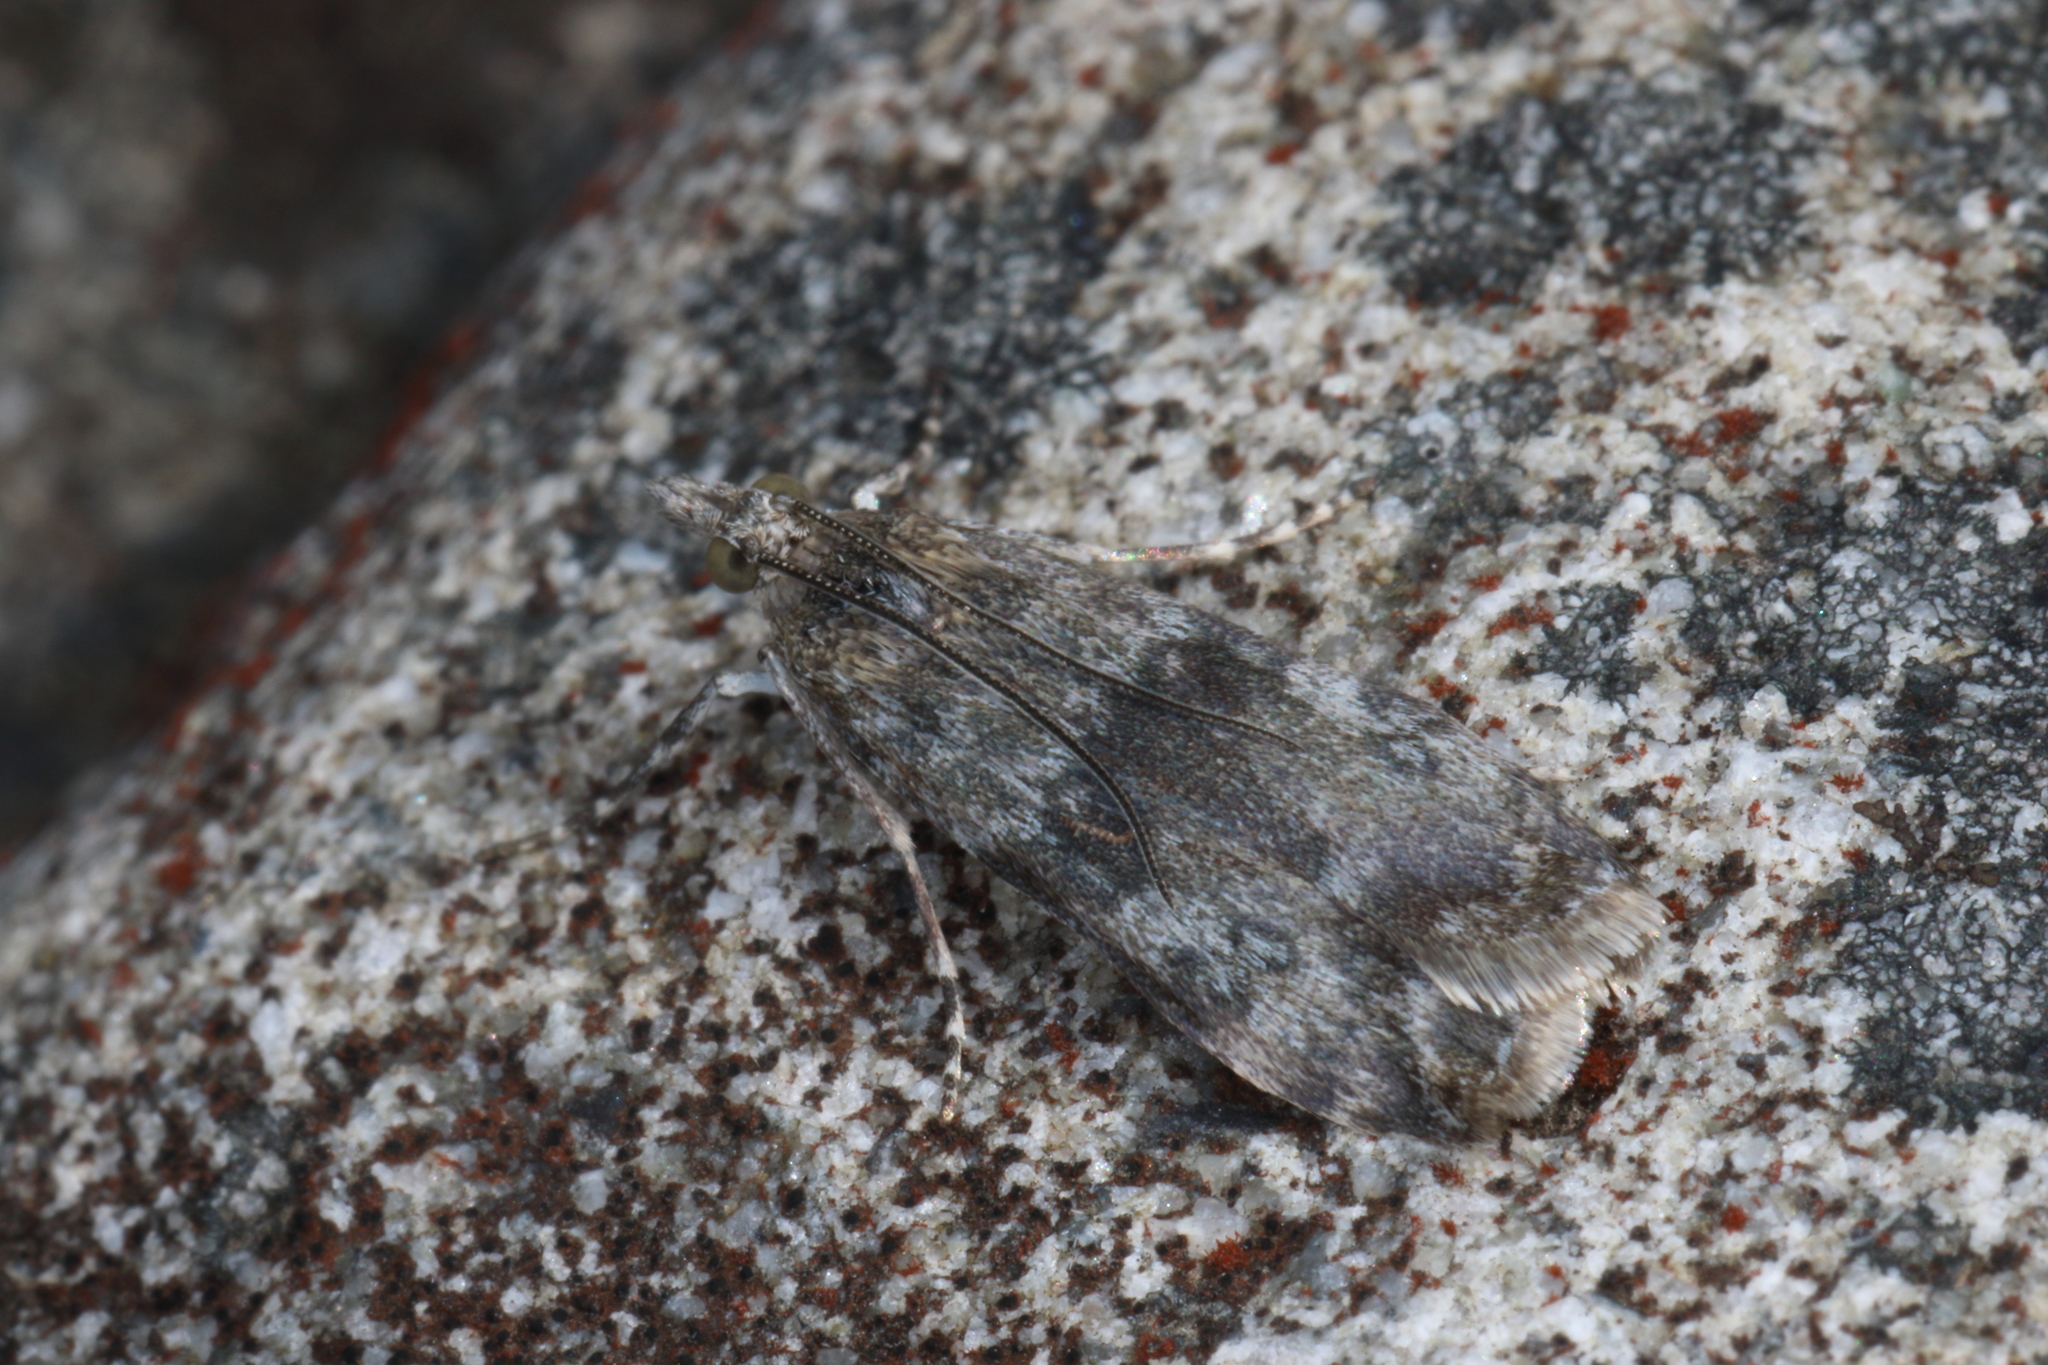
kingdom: Animalia
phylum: Arthropoda
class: Insecta
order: Lepidoptera
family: Crambidae
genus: Eudonia
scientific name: Eudonia cataxesta
